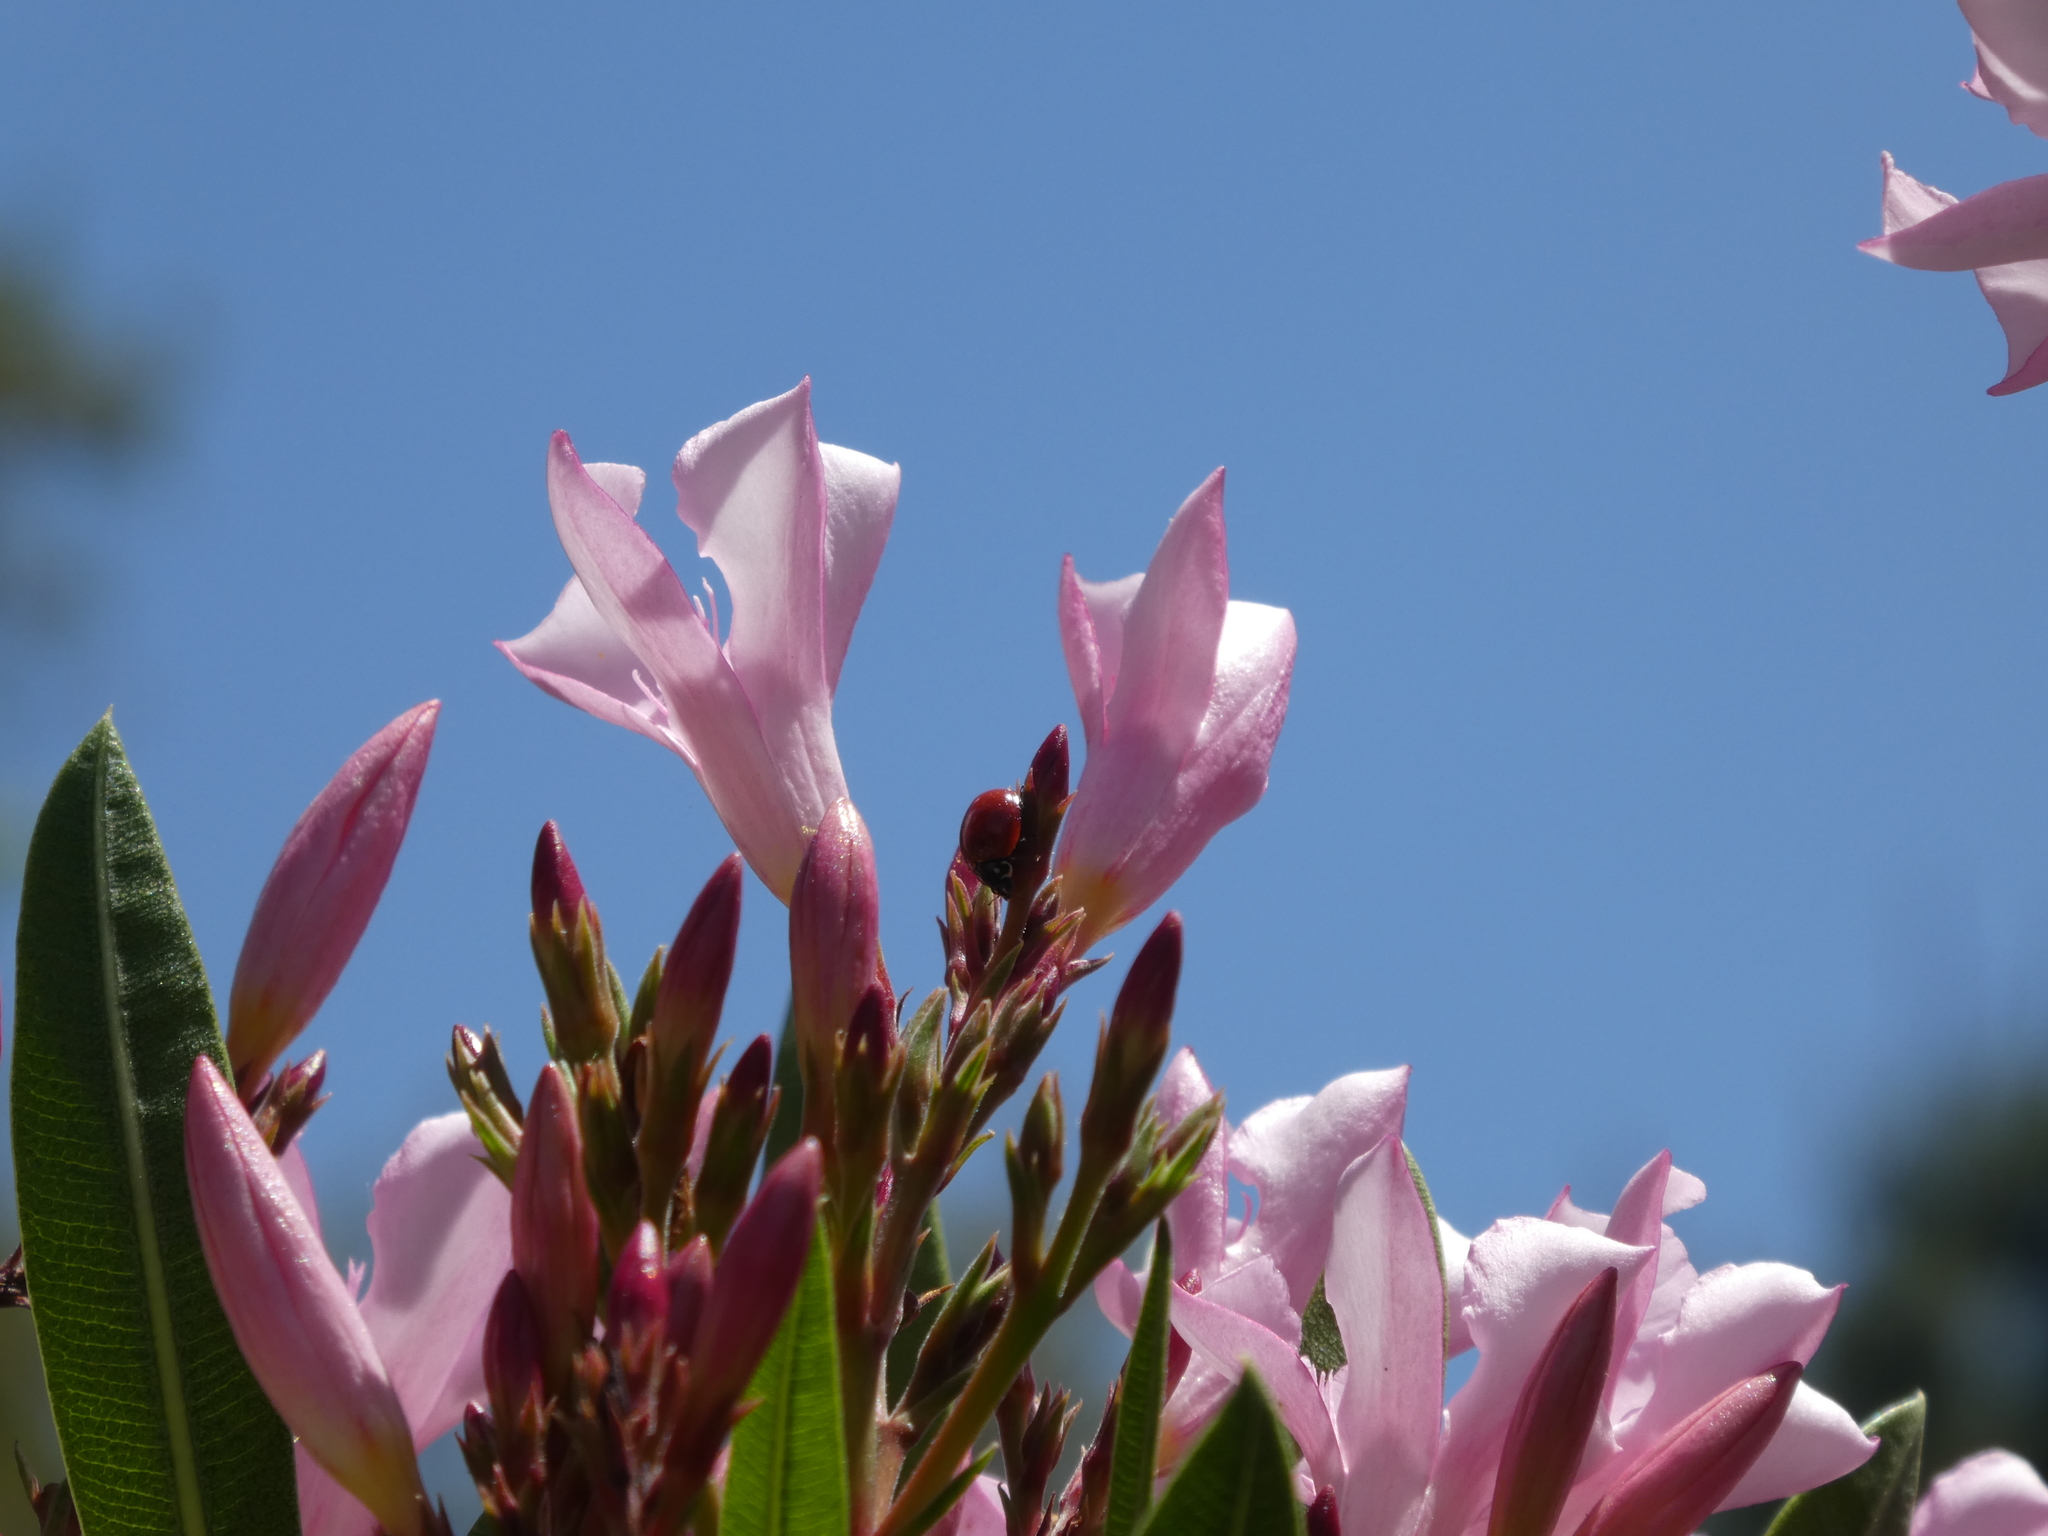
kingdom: Animalia
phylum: Arthropoda
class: Insecta
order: Coleoptera
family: Coccinellidae
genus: Cycloneda
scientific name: Cycloneda sanguinea
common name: Ladybird beetle
